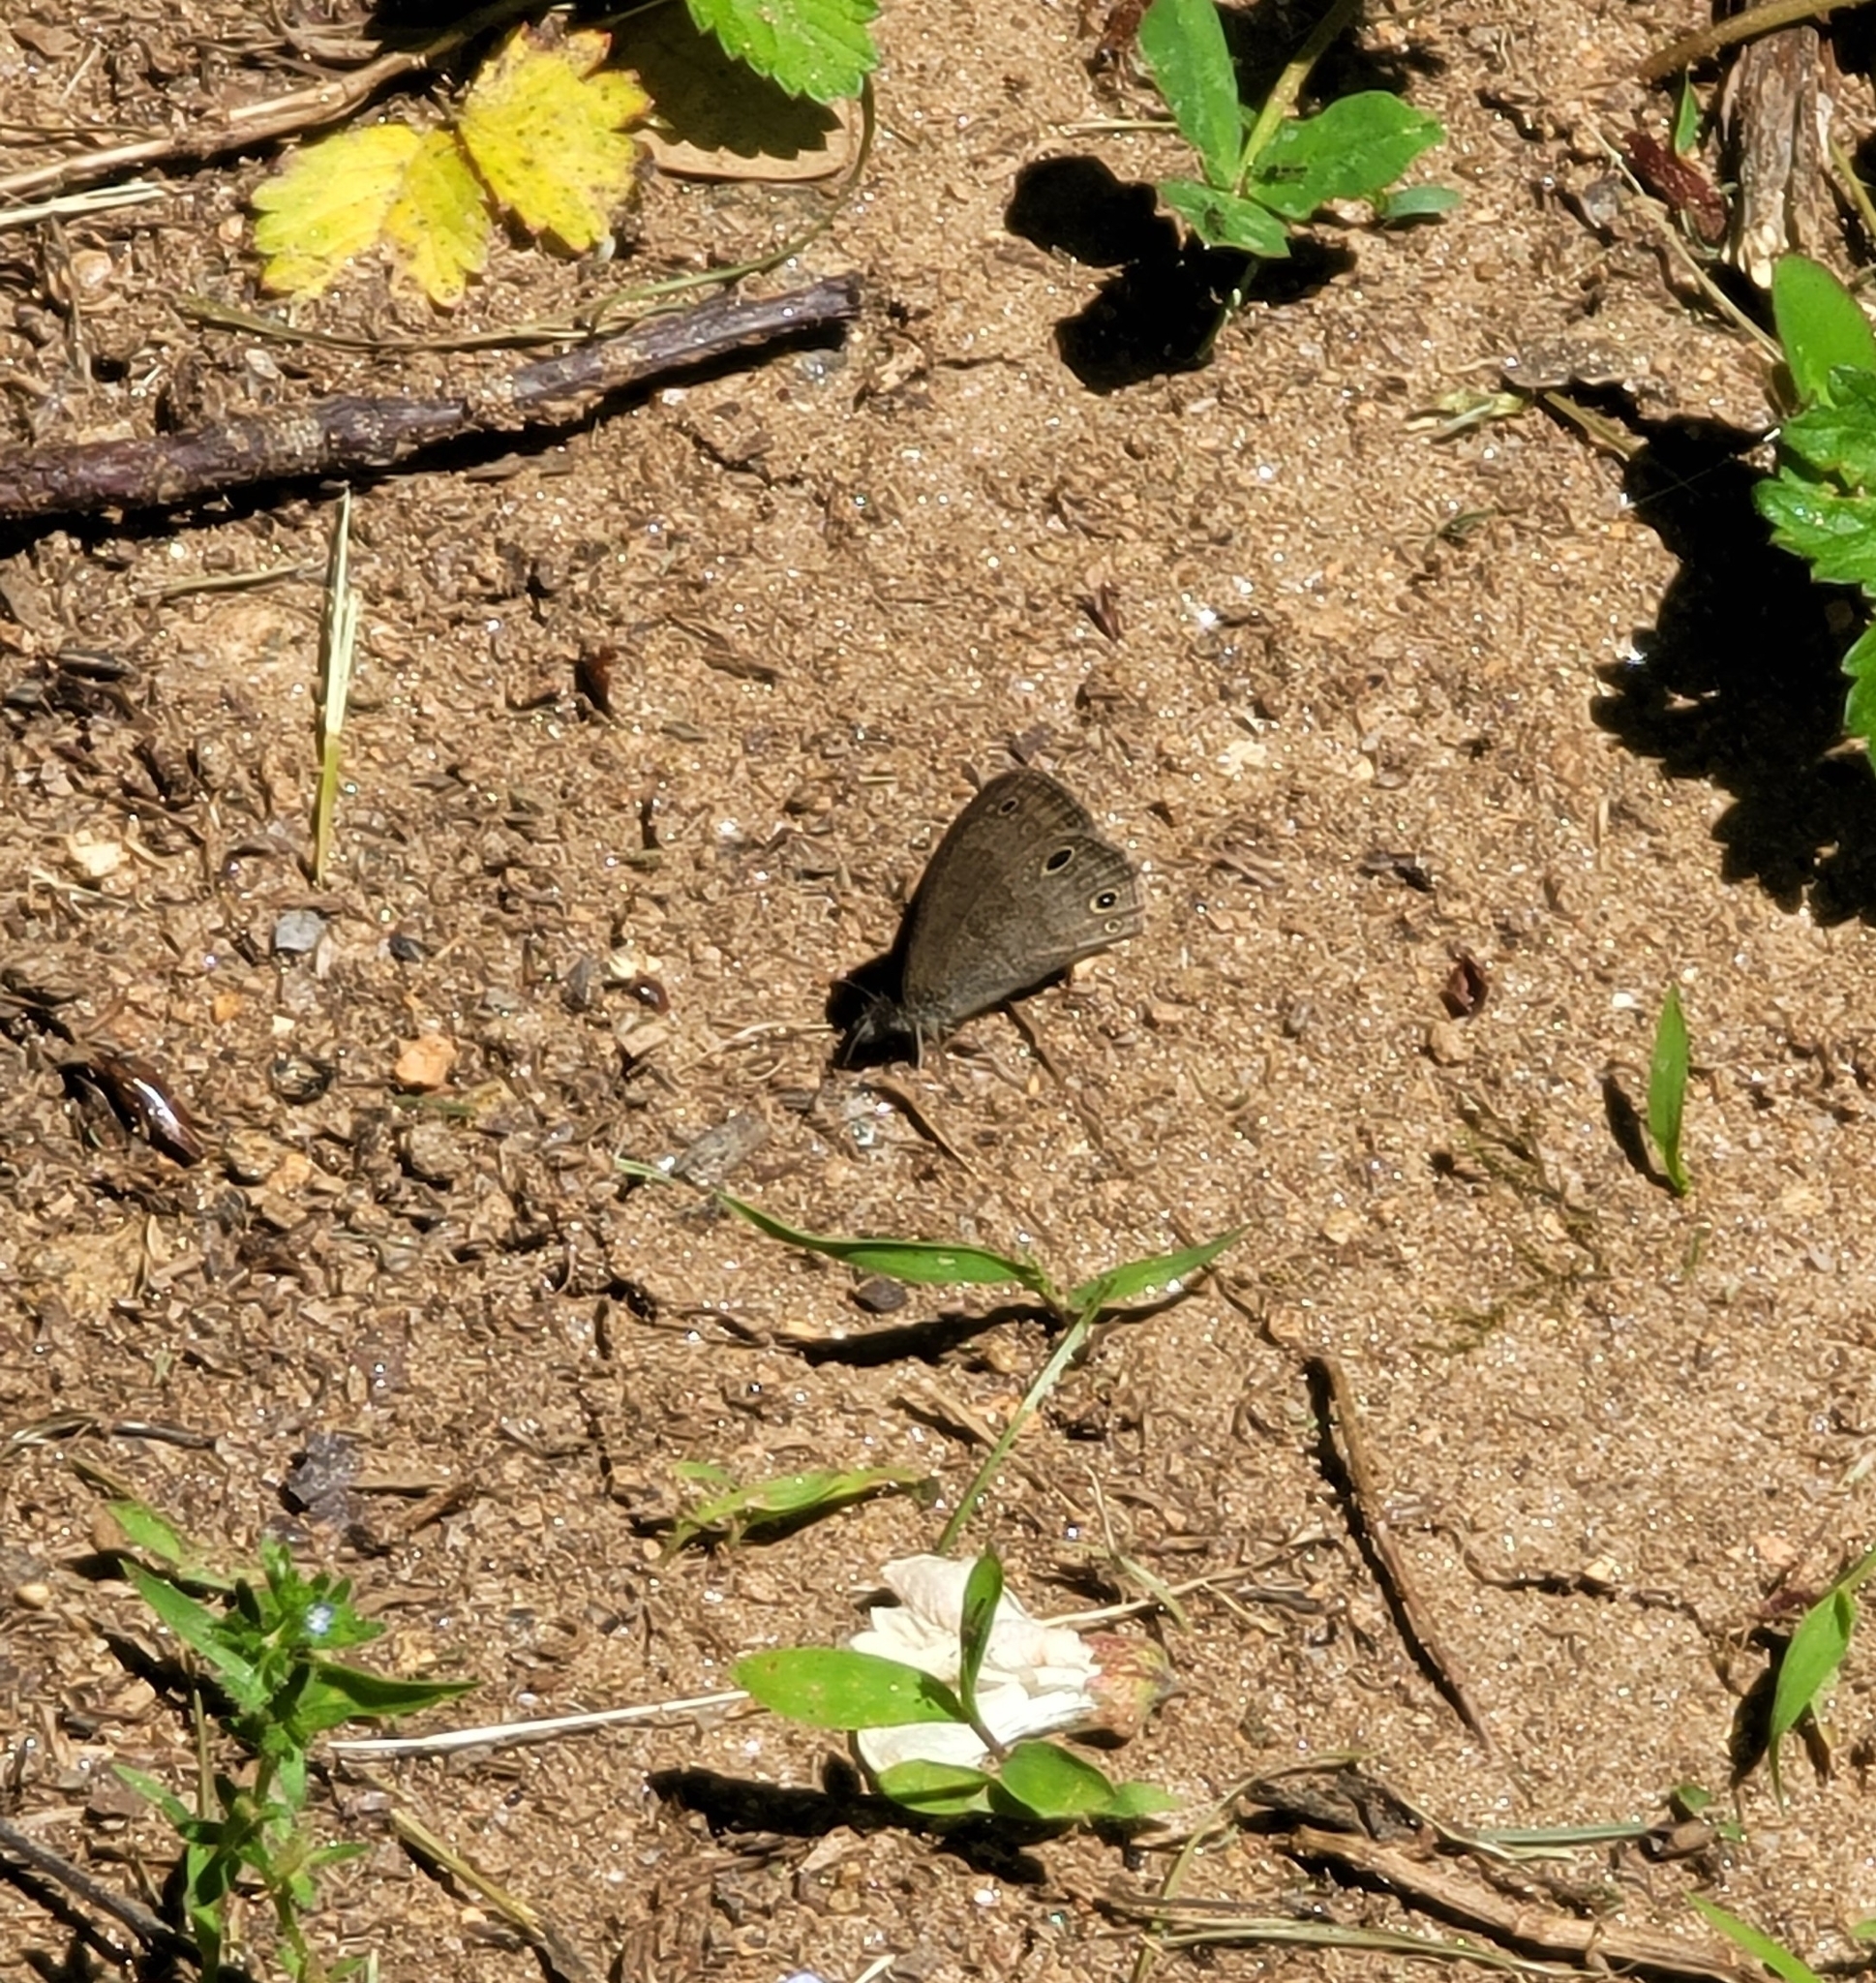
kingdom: Animalia
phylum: Arthropoda
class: Insecta
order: Lepidoptera
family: Nymphalidae
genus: Hermeuptychia
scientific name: Hermeuptychia hermes
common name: Hermes satyr
